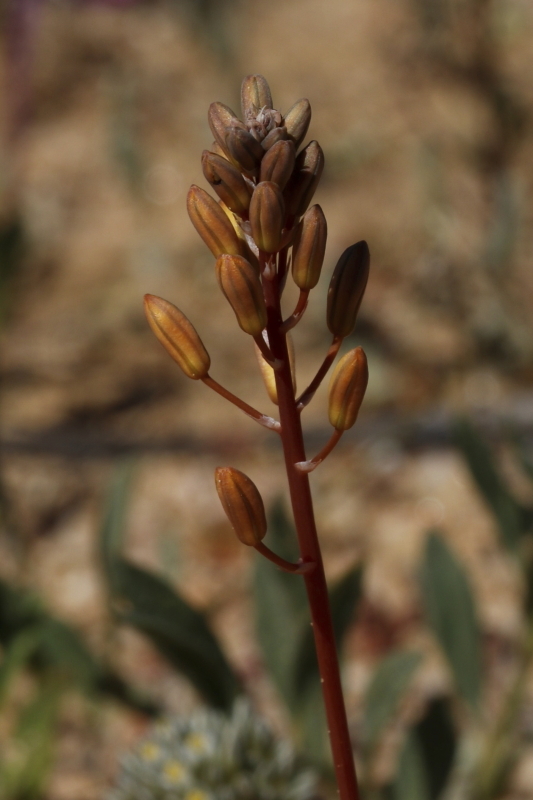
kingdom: Plantae
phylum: Tracheophyta
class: Liliopsida
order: Asparagales
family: Asphodelaceae
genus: Bulbine
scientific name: Bulbine torta
